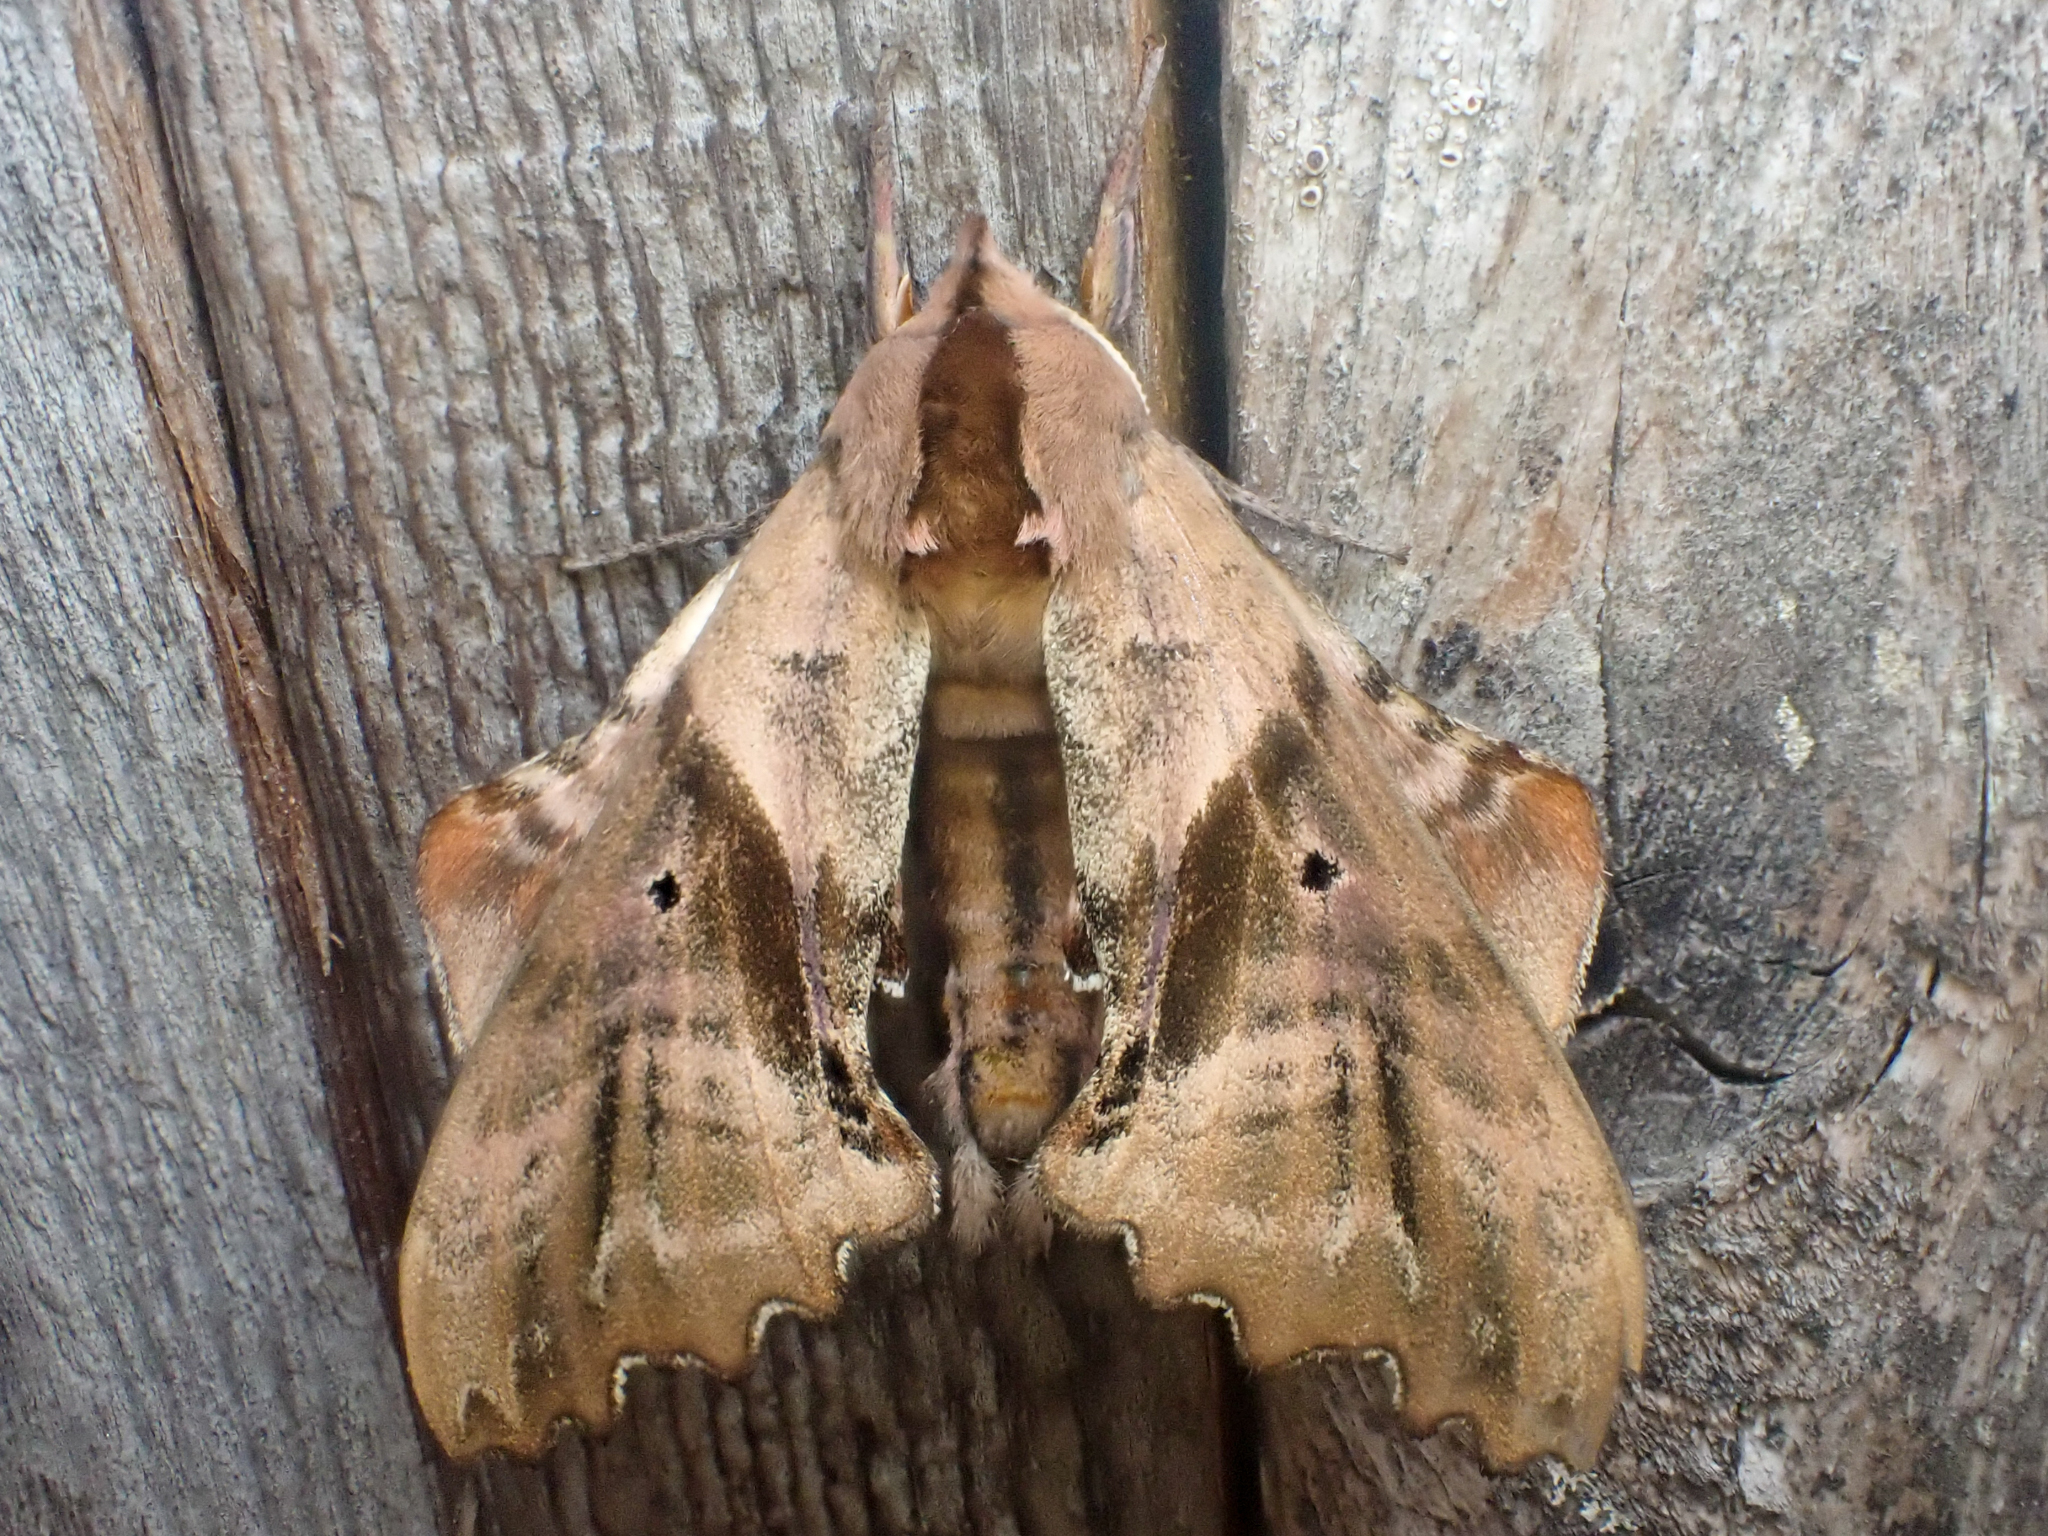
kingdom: Animalia
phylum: Arthropoda
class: Insecta
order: Lepidoptera
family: Sphingidae
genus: Paonias
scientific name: Paonias excaecata
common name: Blind-eyed sphinx
